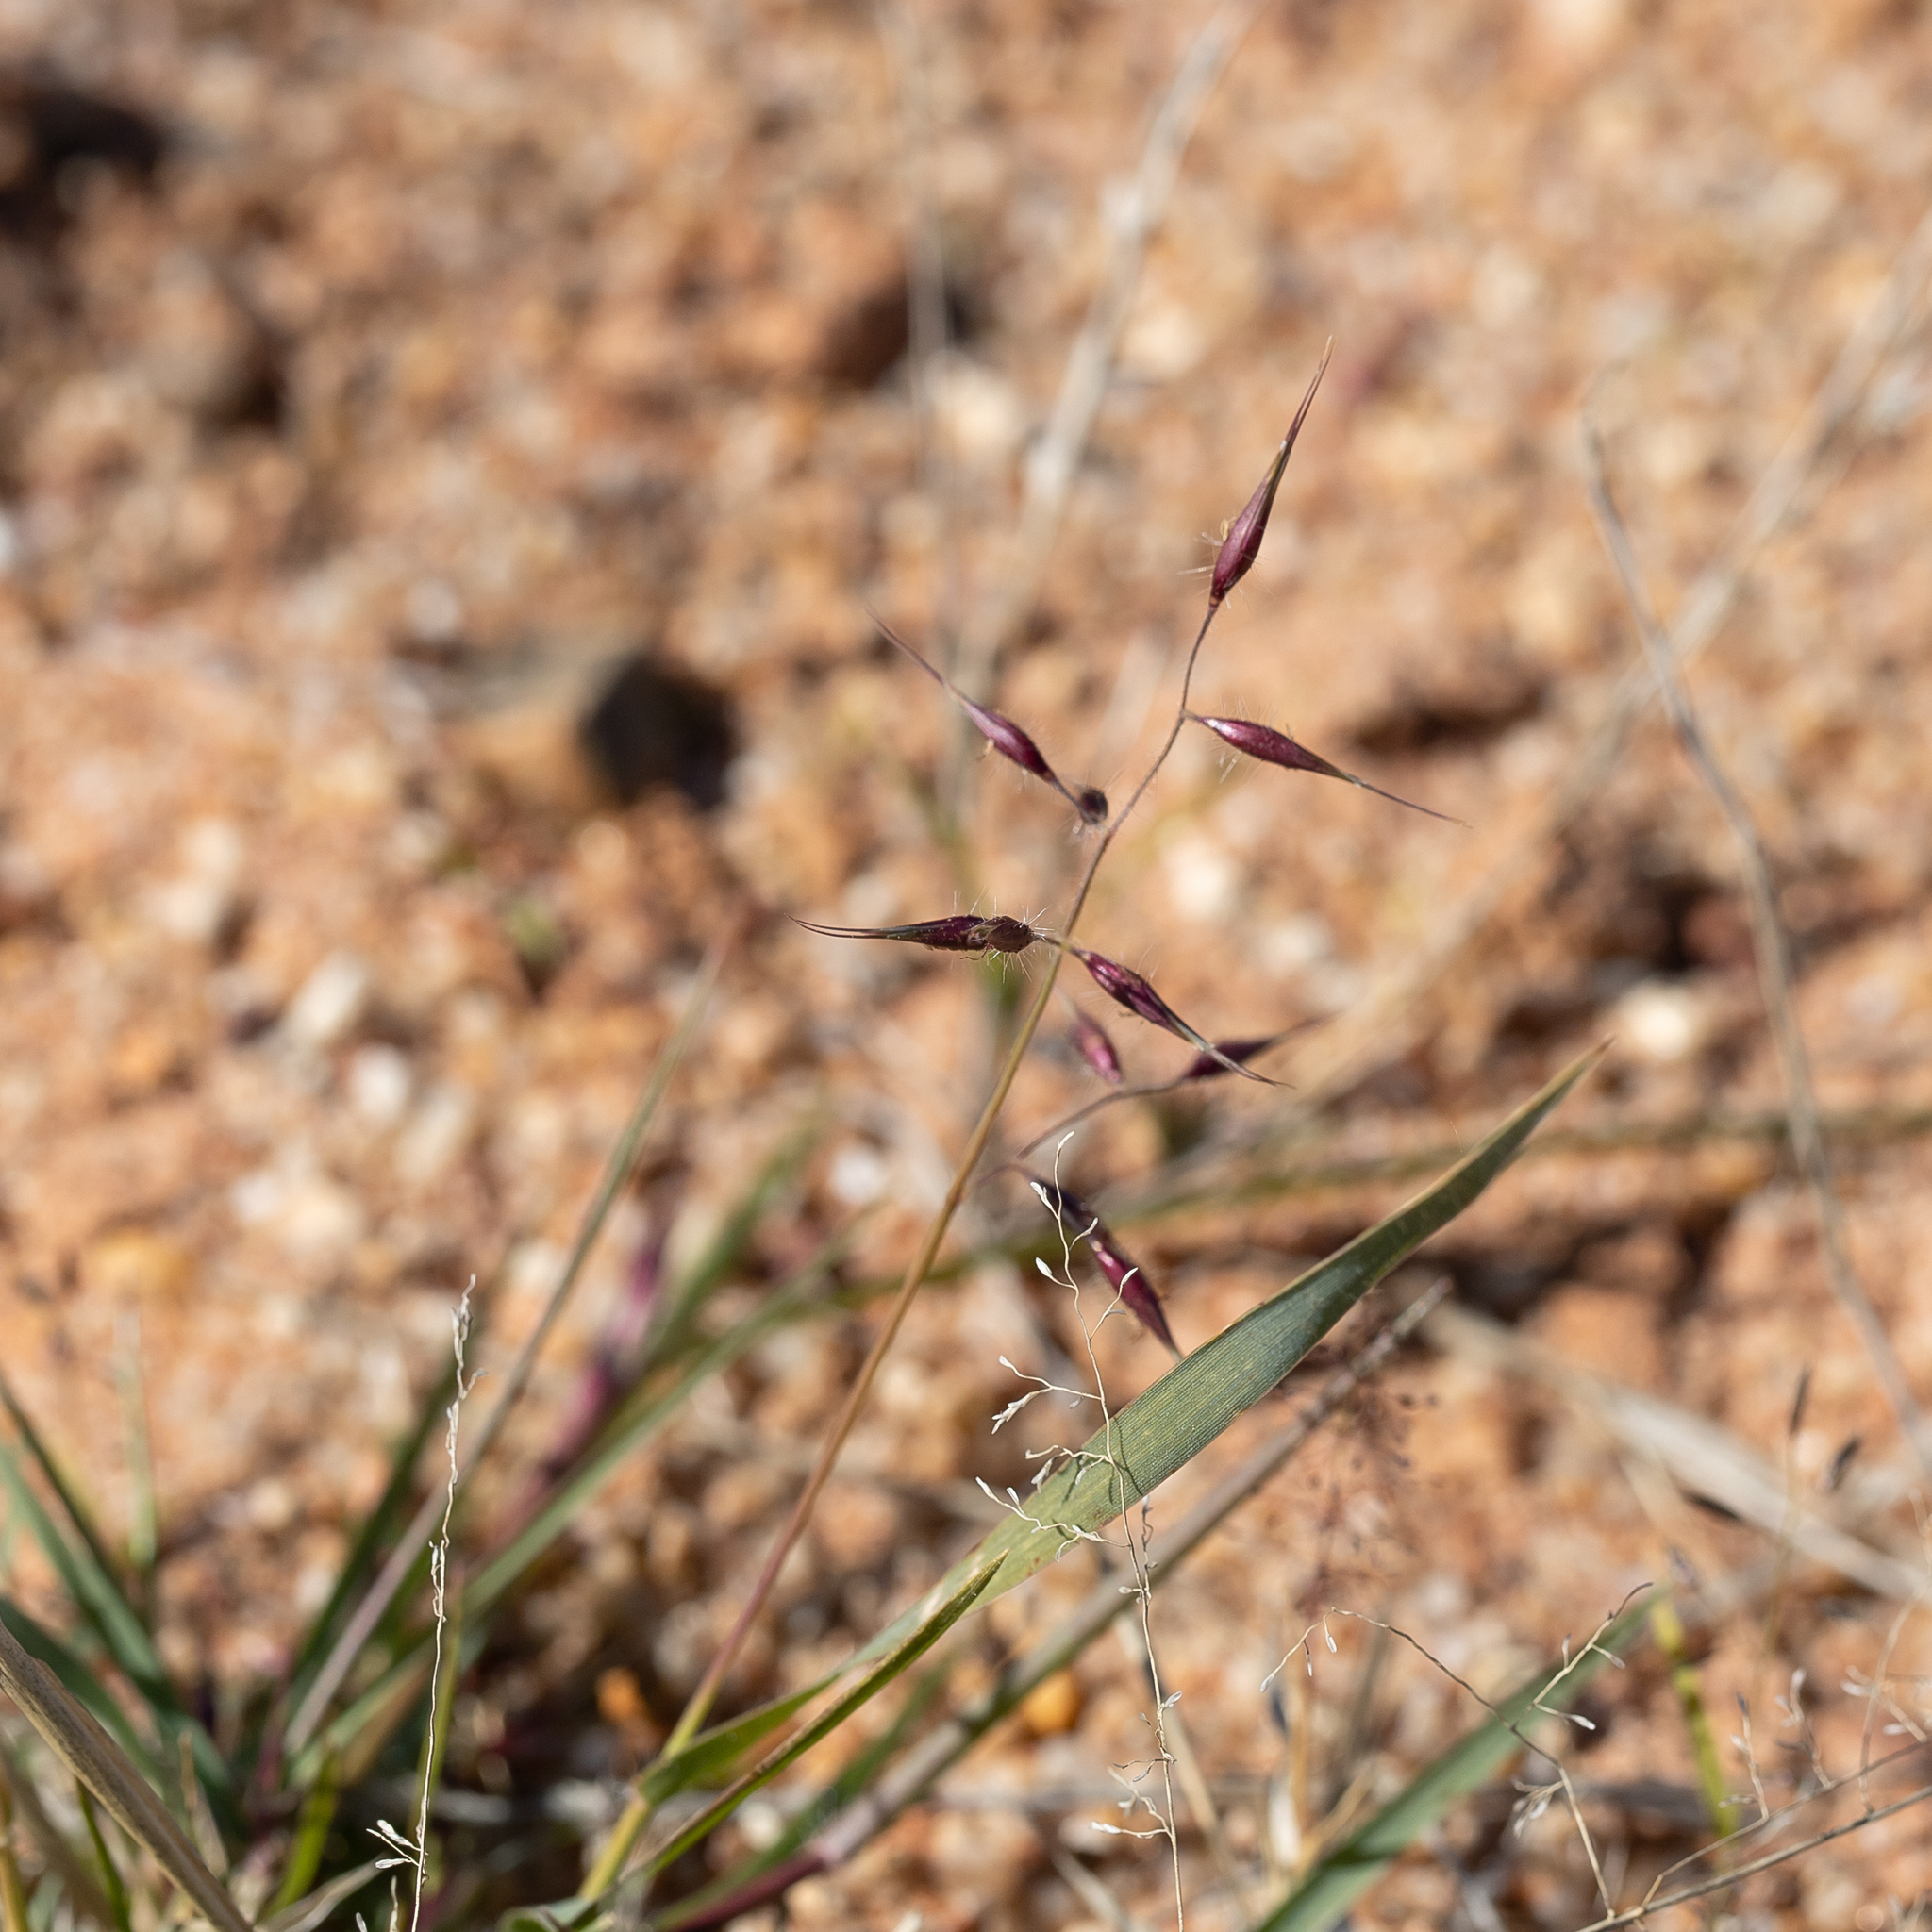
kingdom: Plantae
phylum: Tracheophyta
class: Liliopsida
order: Poales
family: Poaceae
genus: Eriachne
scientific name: Eriachne aristidea
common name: Three-awn wanderrie grass
